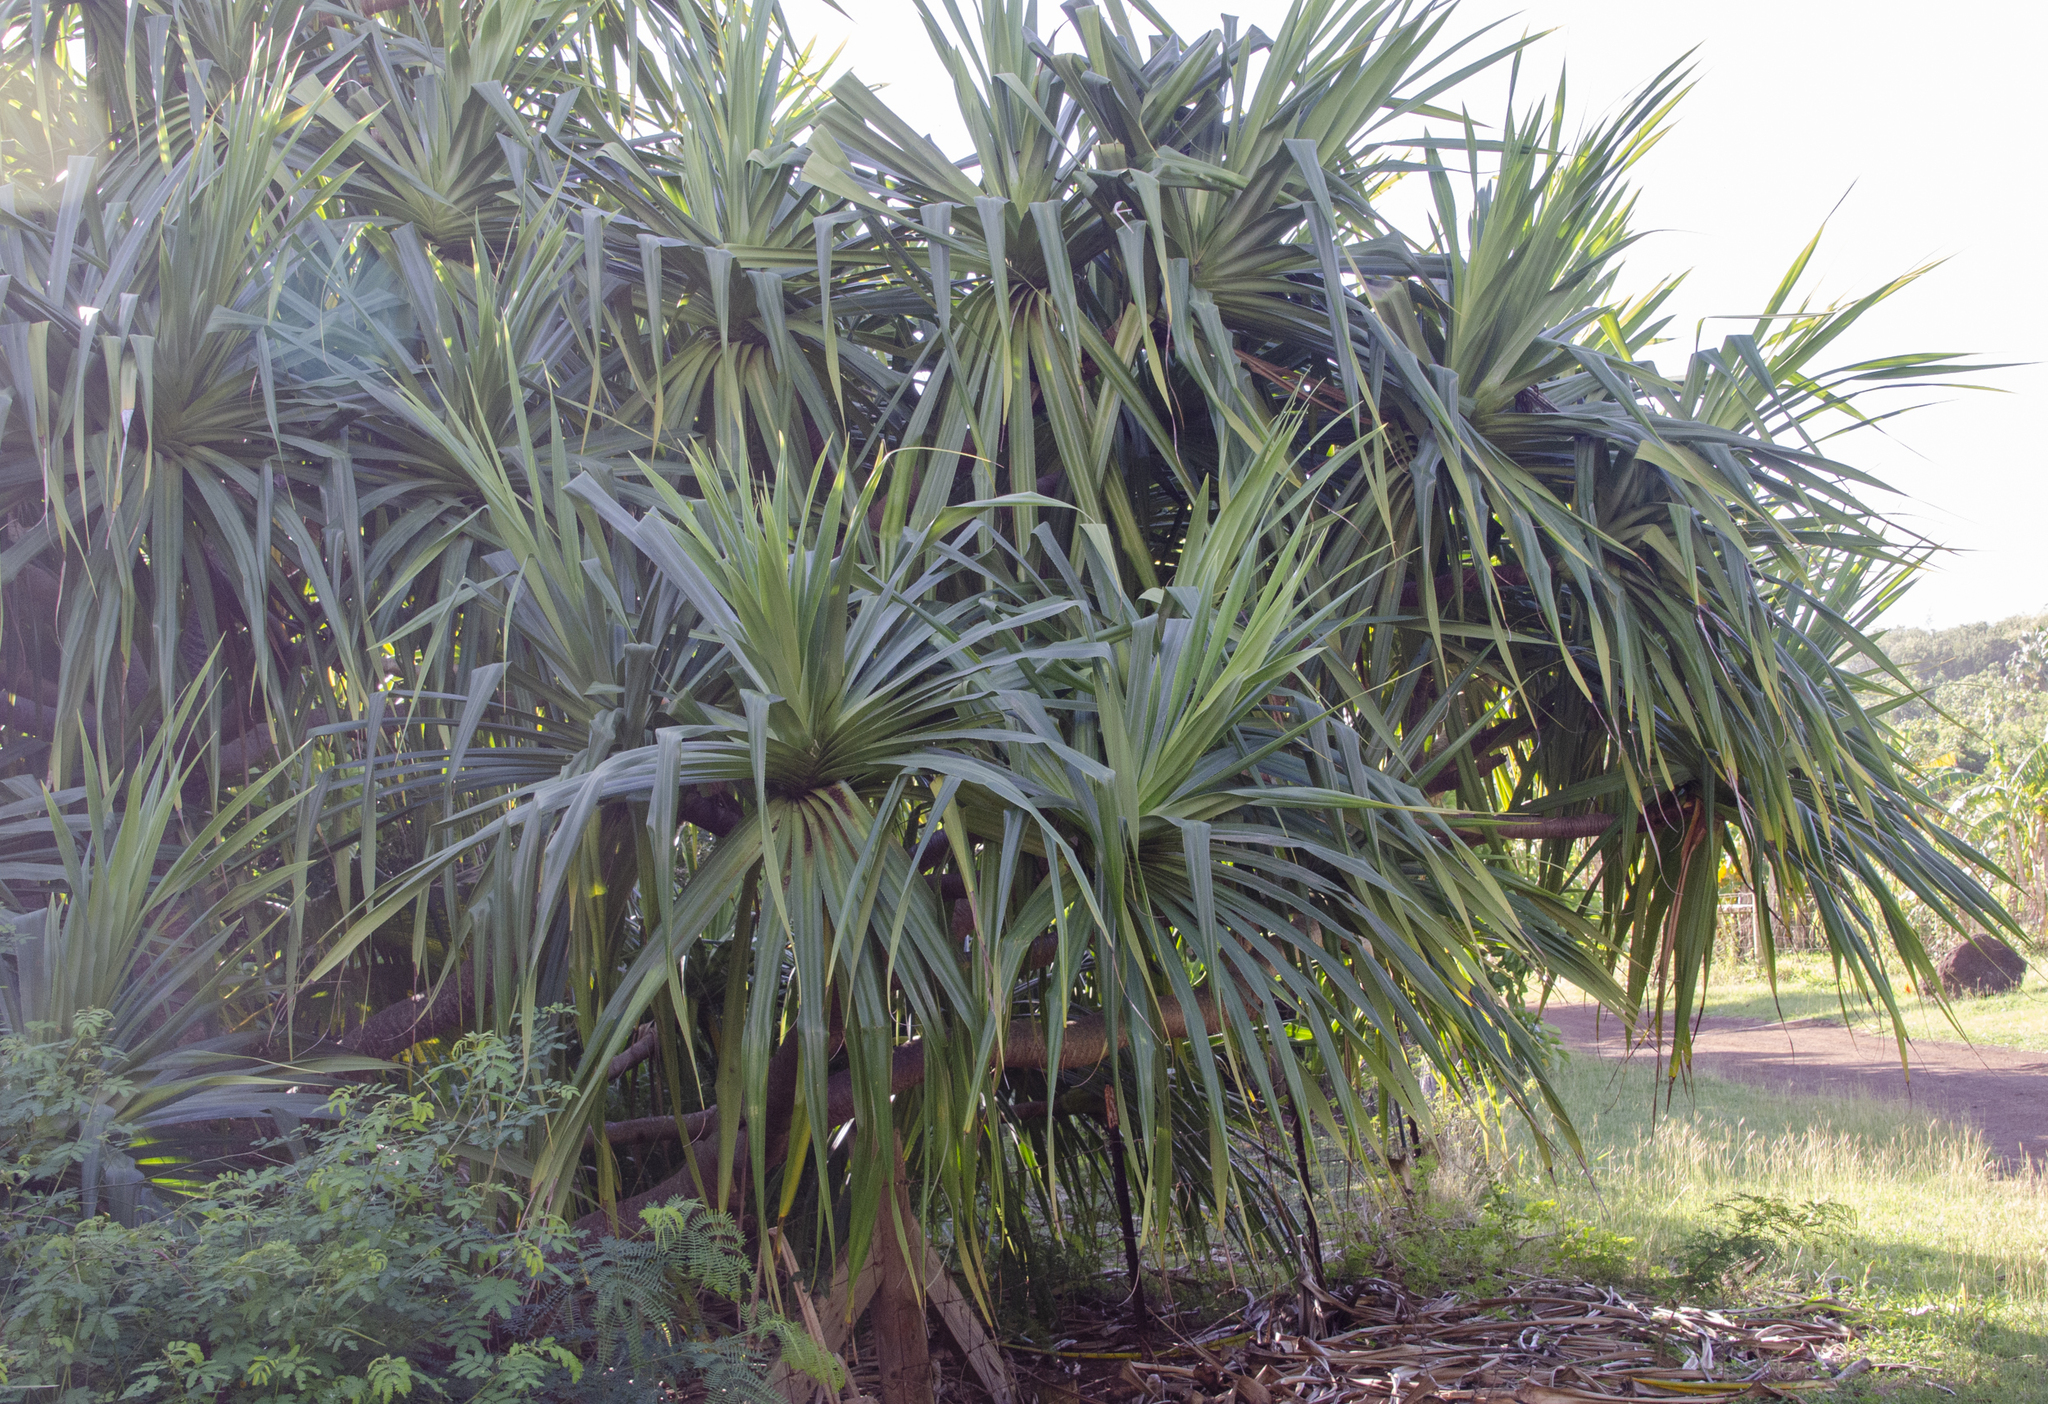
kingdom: Plantae
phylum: Tracheophyta
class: Liliopsida
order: Pandanales
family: Pandanaceae
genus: Pandanus
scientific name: Pandanus tectorius
